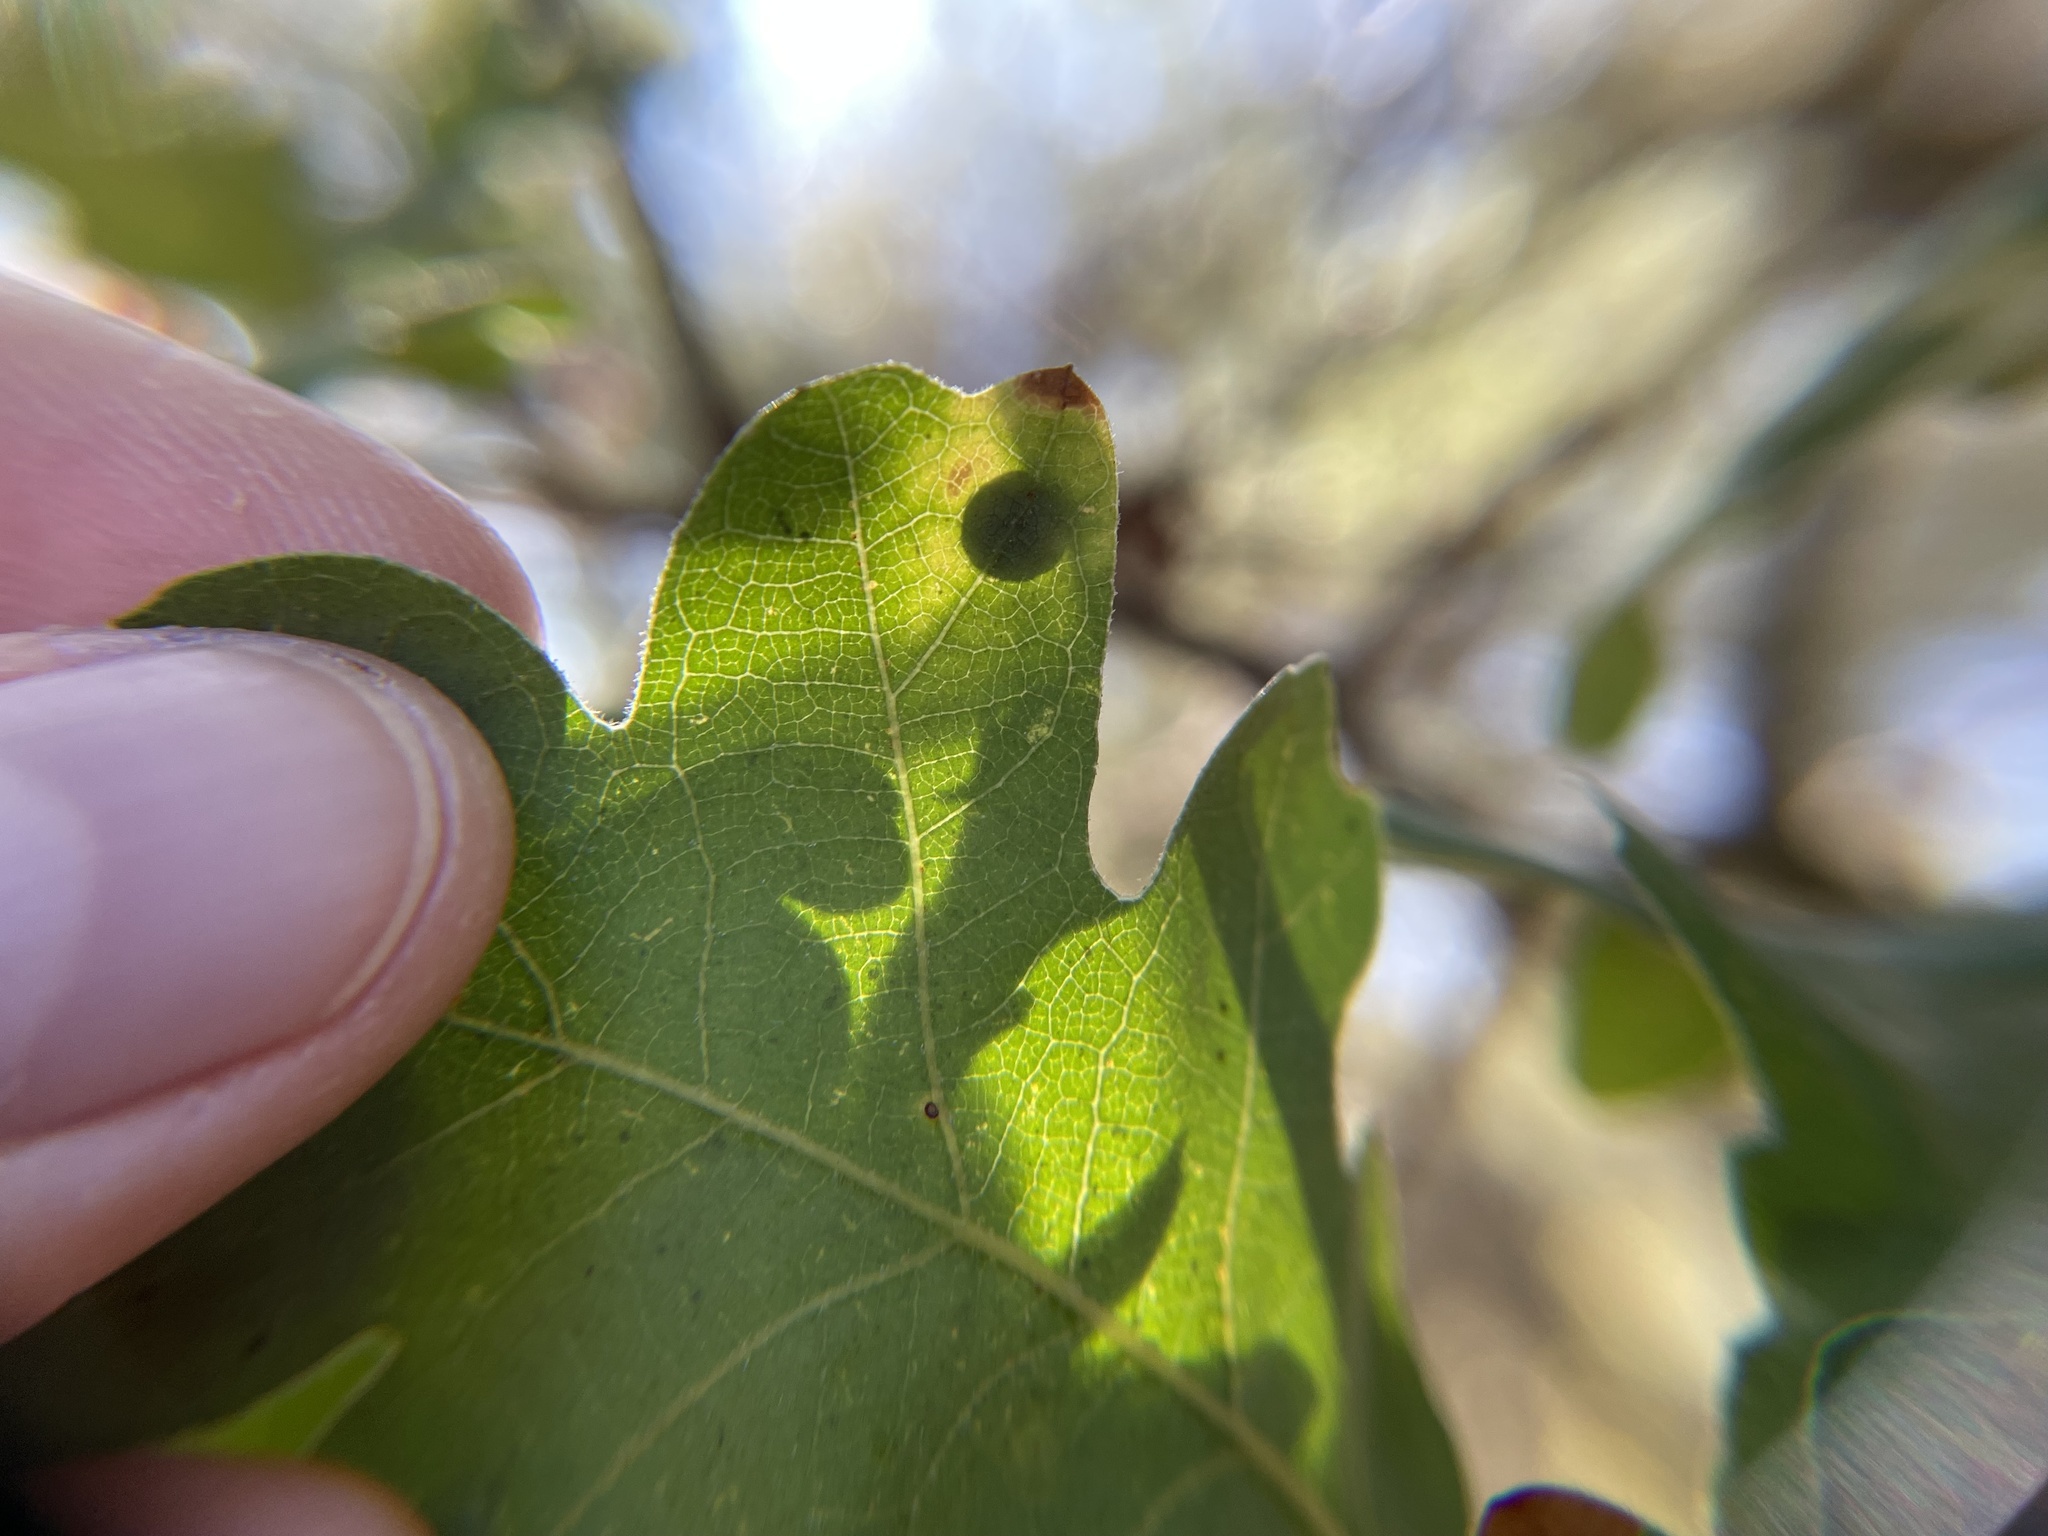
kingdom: Animalia
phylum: Arthropoda
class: Insecta
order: Hymenoptera
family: Cynipidae
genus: Andricus
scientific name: Andricus
